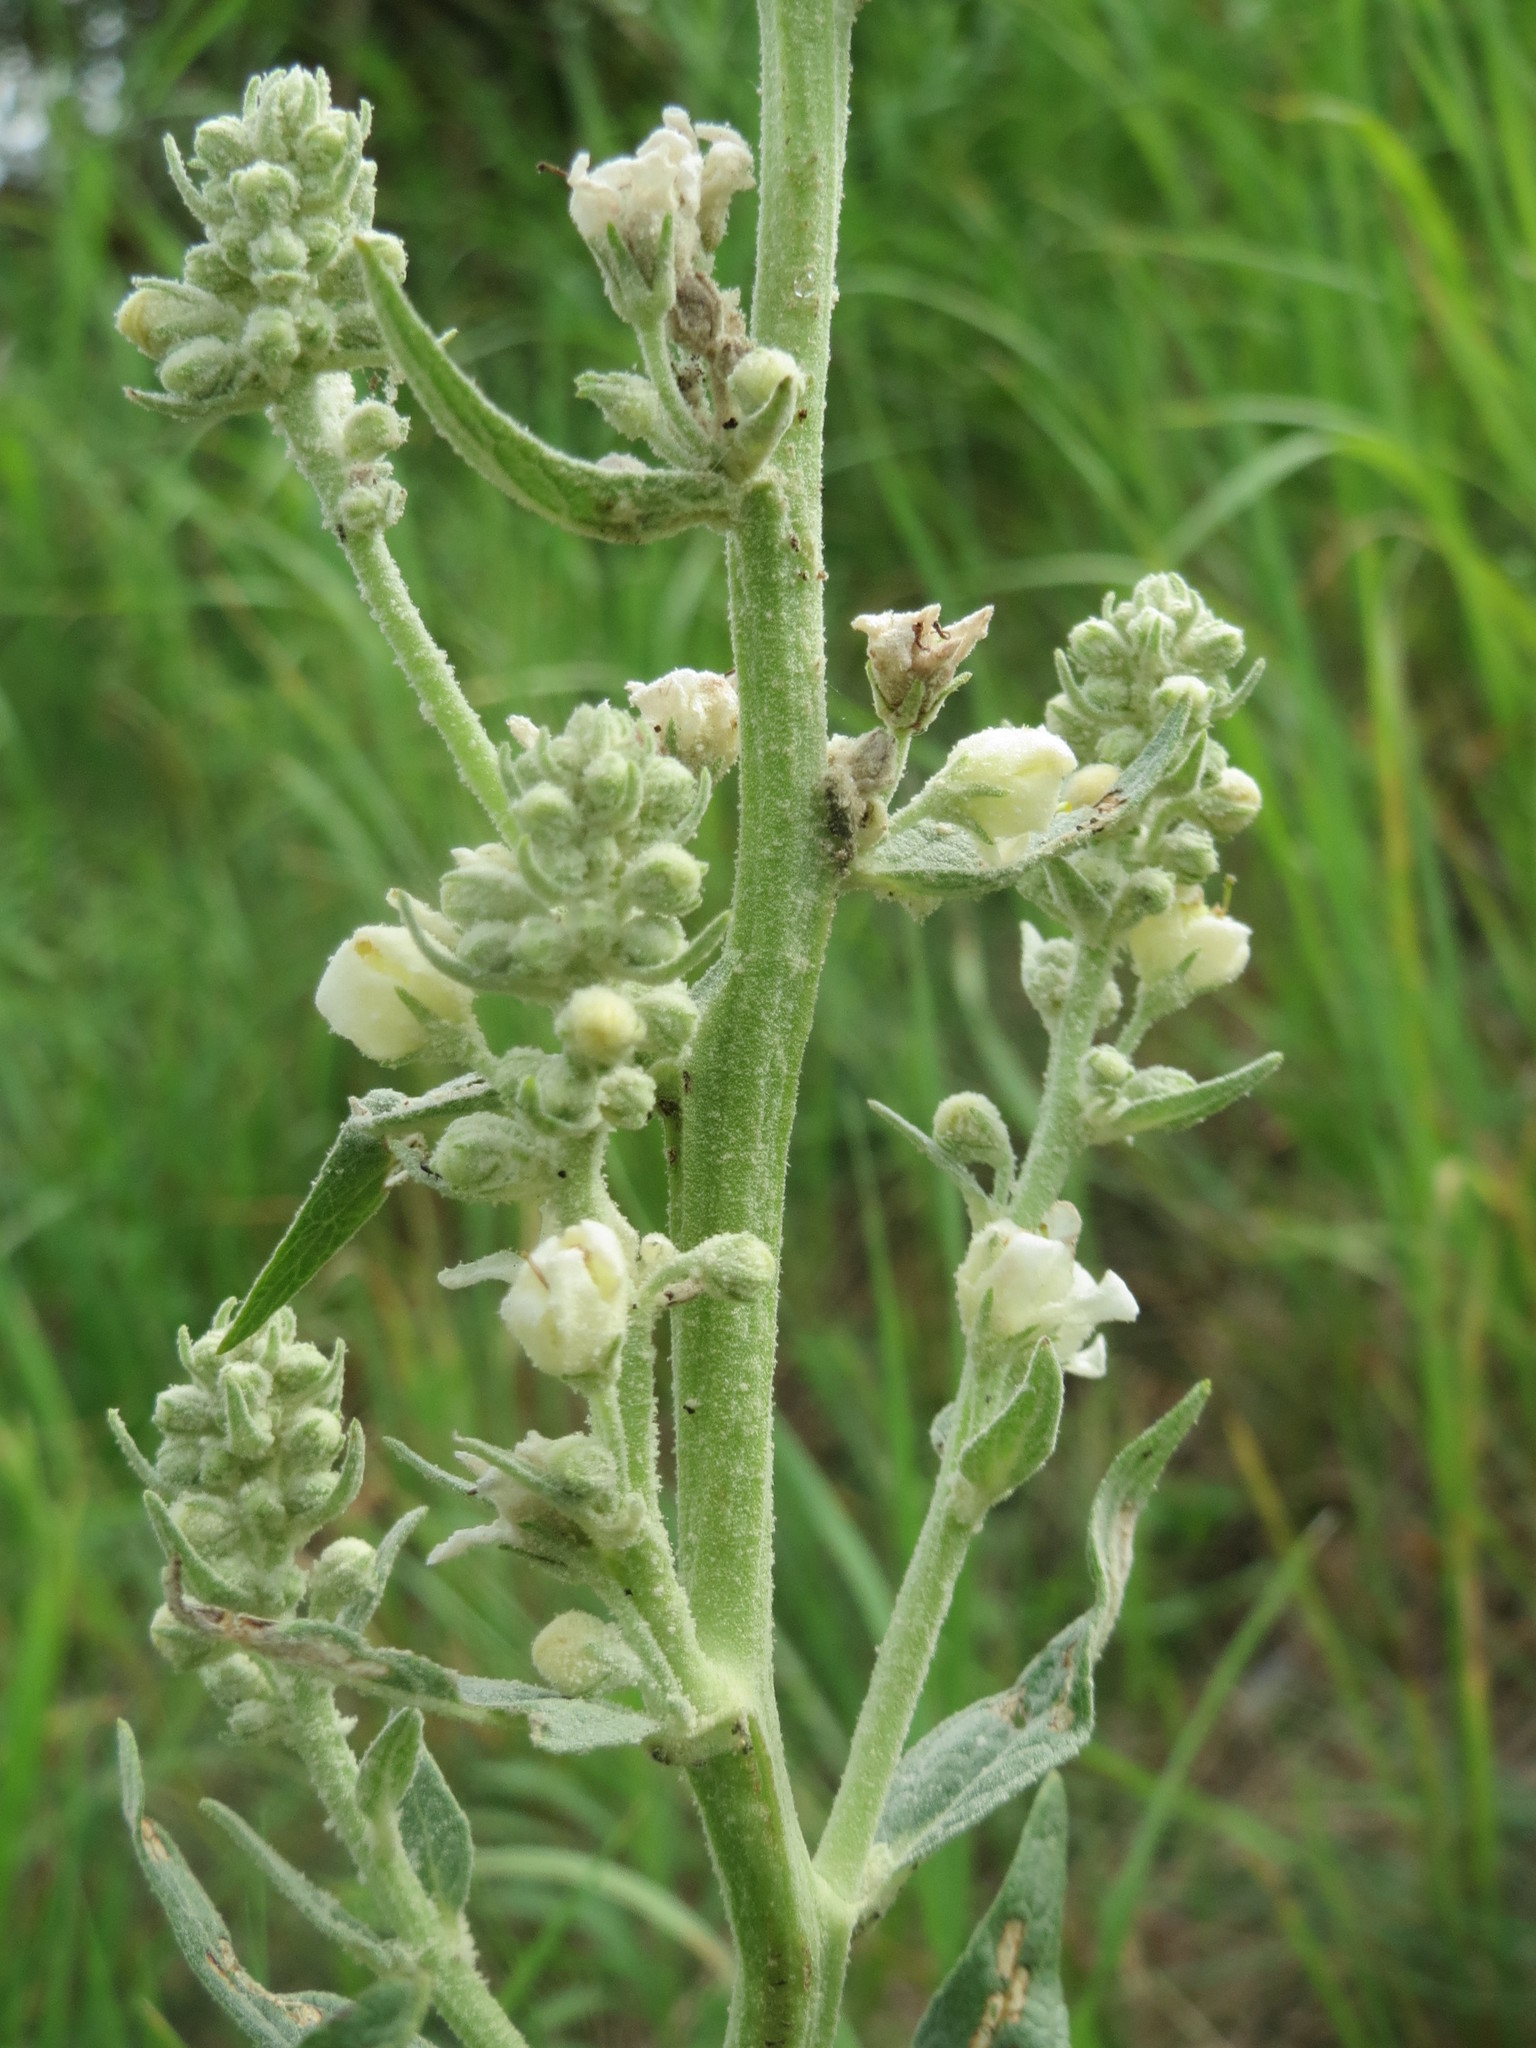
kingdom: Plantae
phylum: Tracheophyta
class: Magnoliopsida
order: Lamiales
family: Scrophulariaceae
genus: Verbascum
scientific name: Verbascum lychnitis
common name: White mullein
